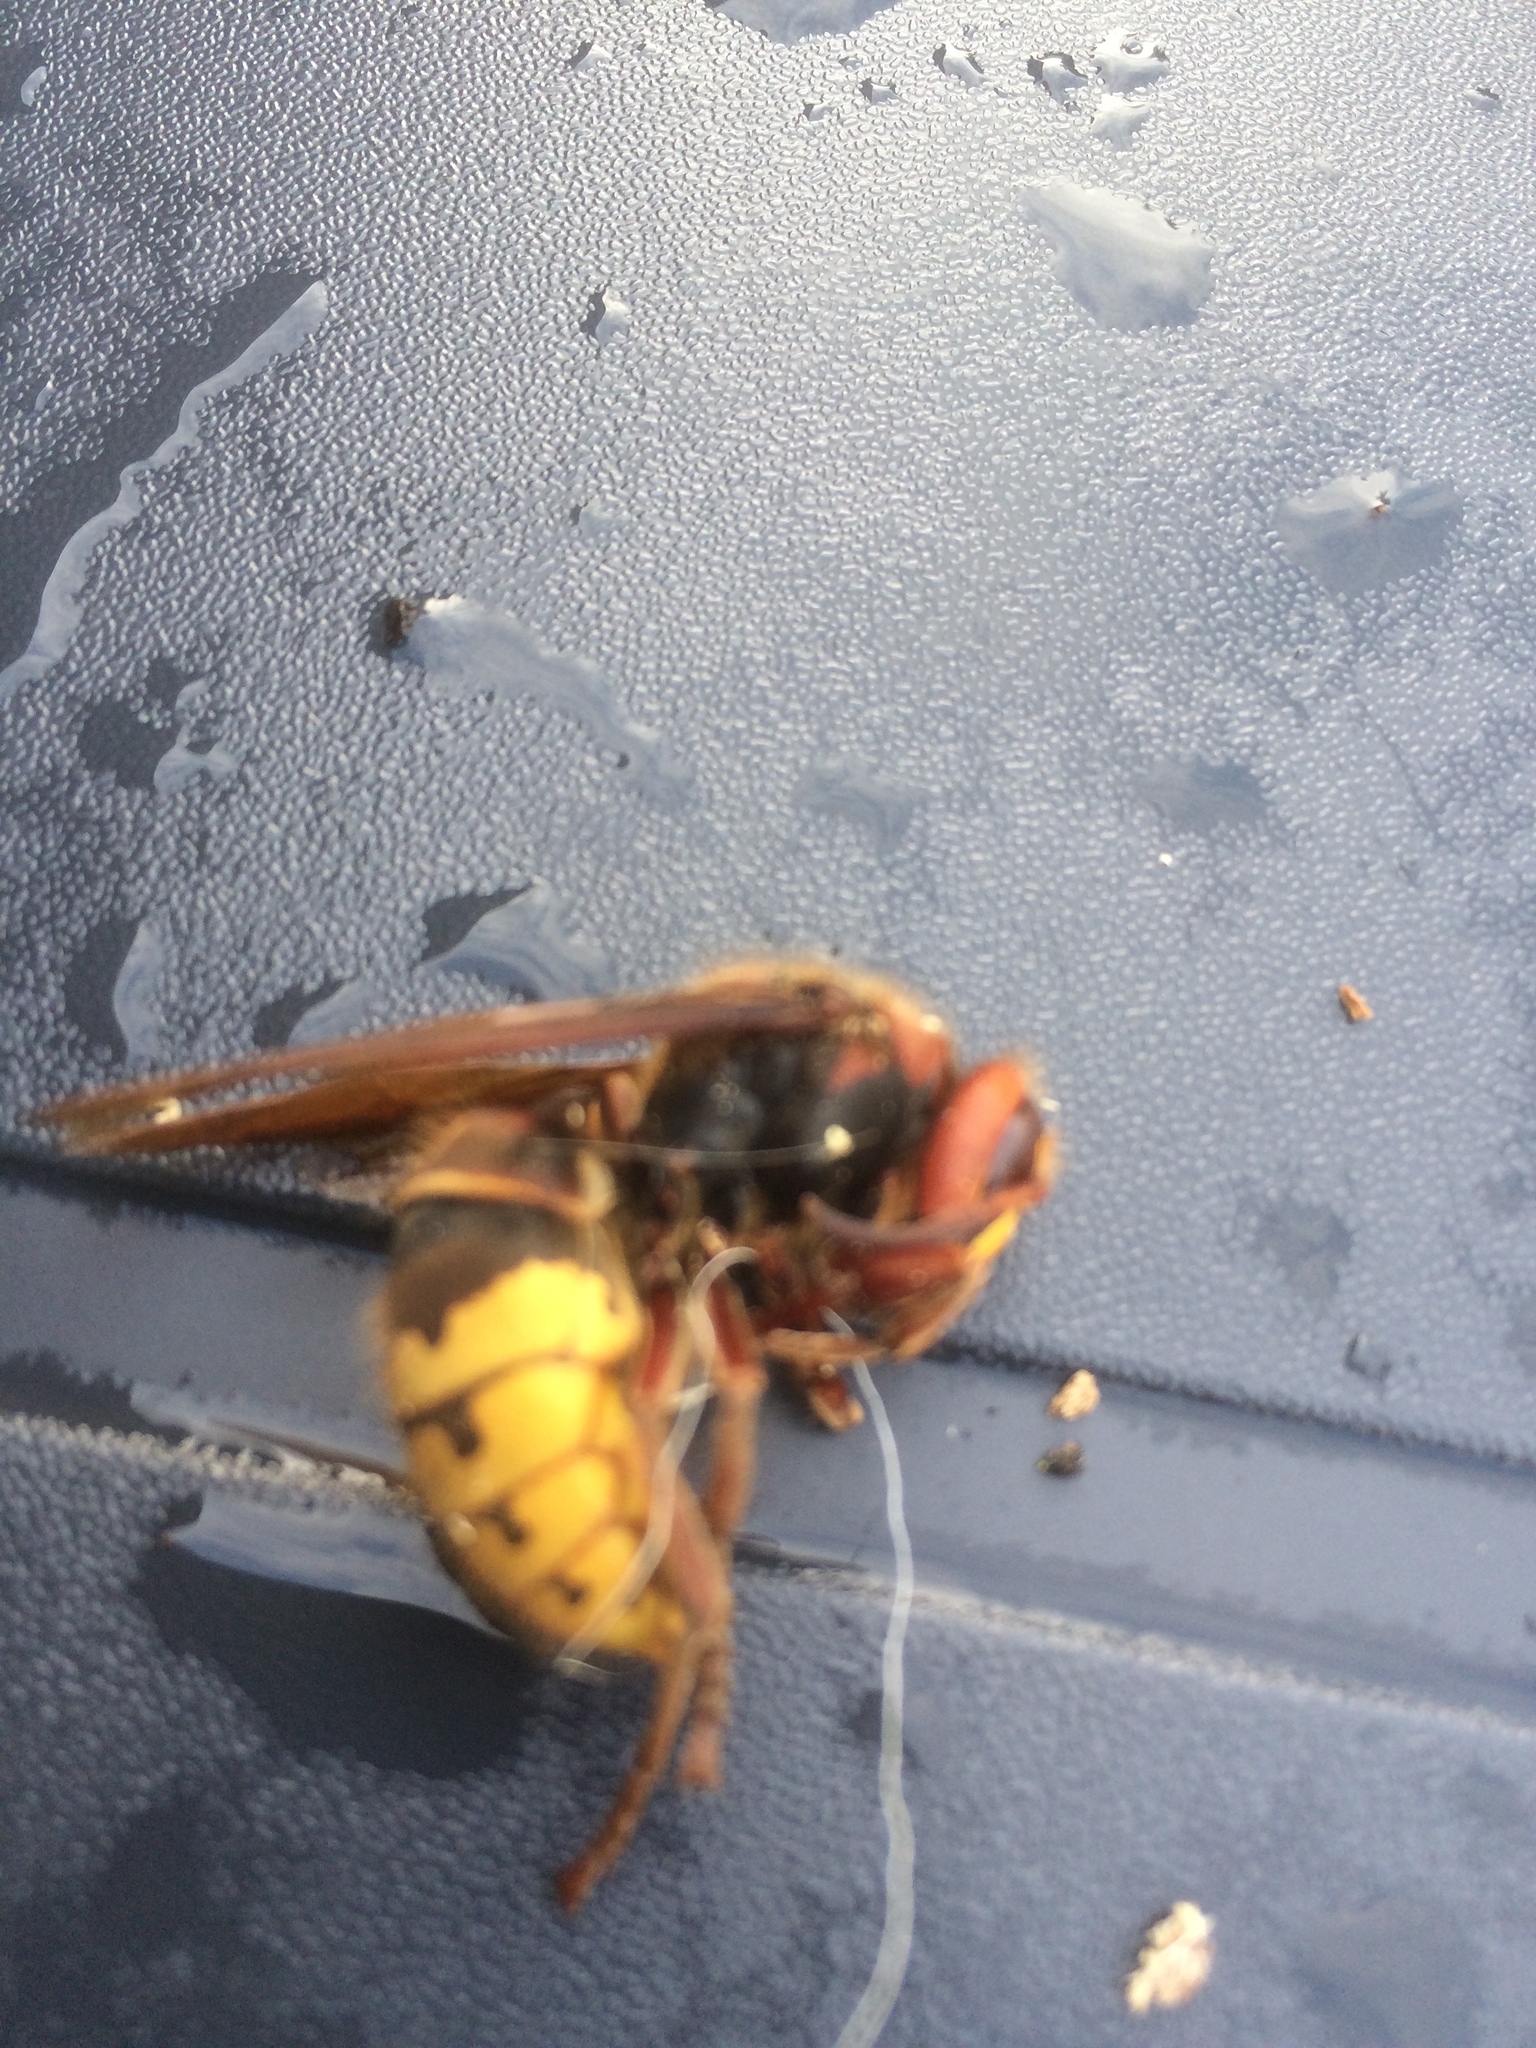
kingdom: Animalia
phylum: Arthropoda
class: Insecta
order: Hymenoptera
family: Vespidae
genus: Vespa
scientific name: Vespa crabro
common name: Hornet
